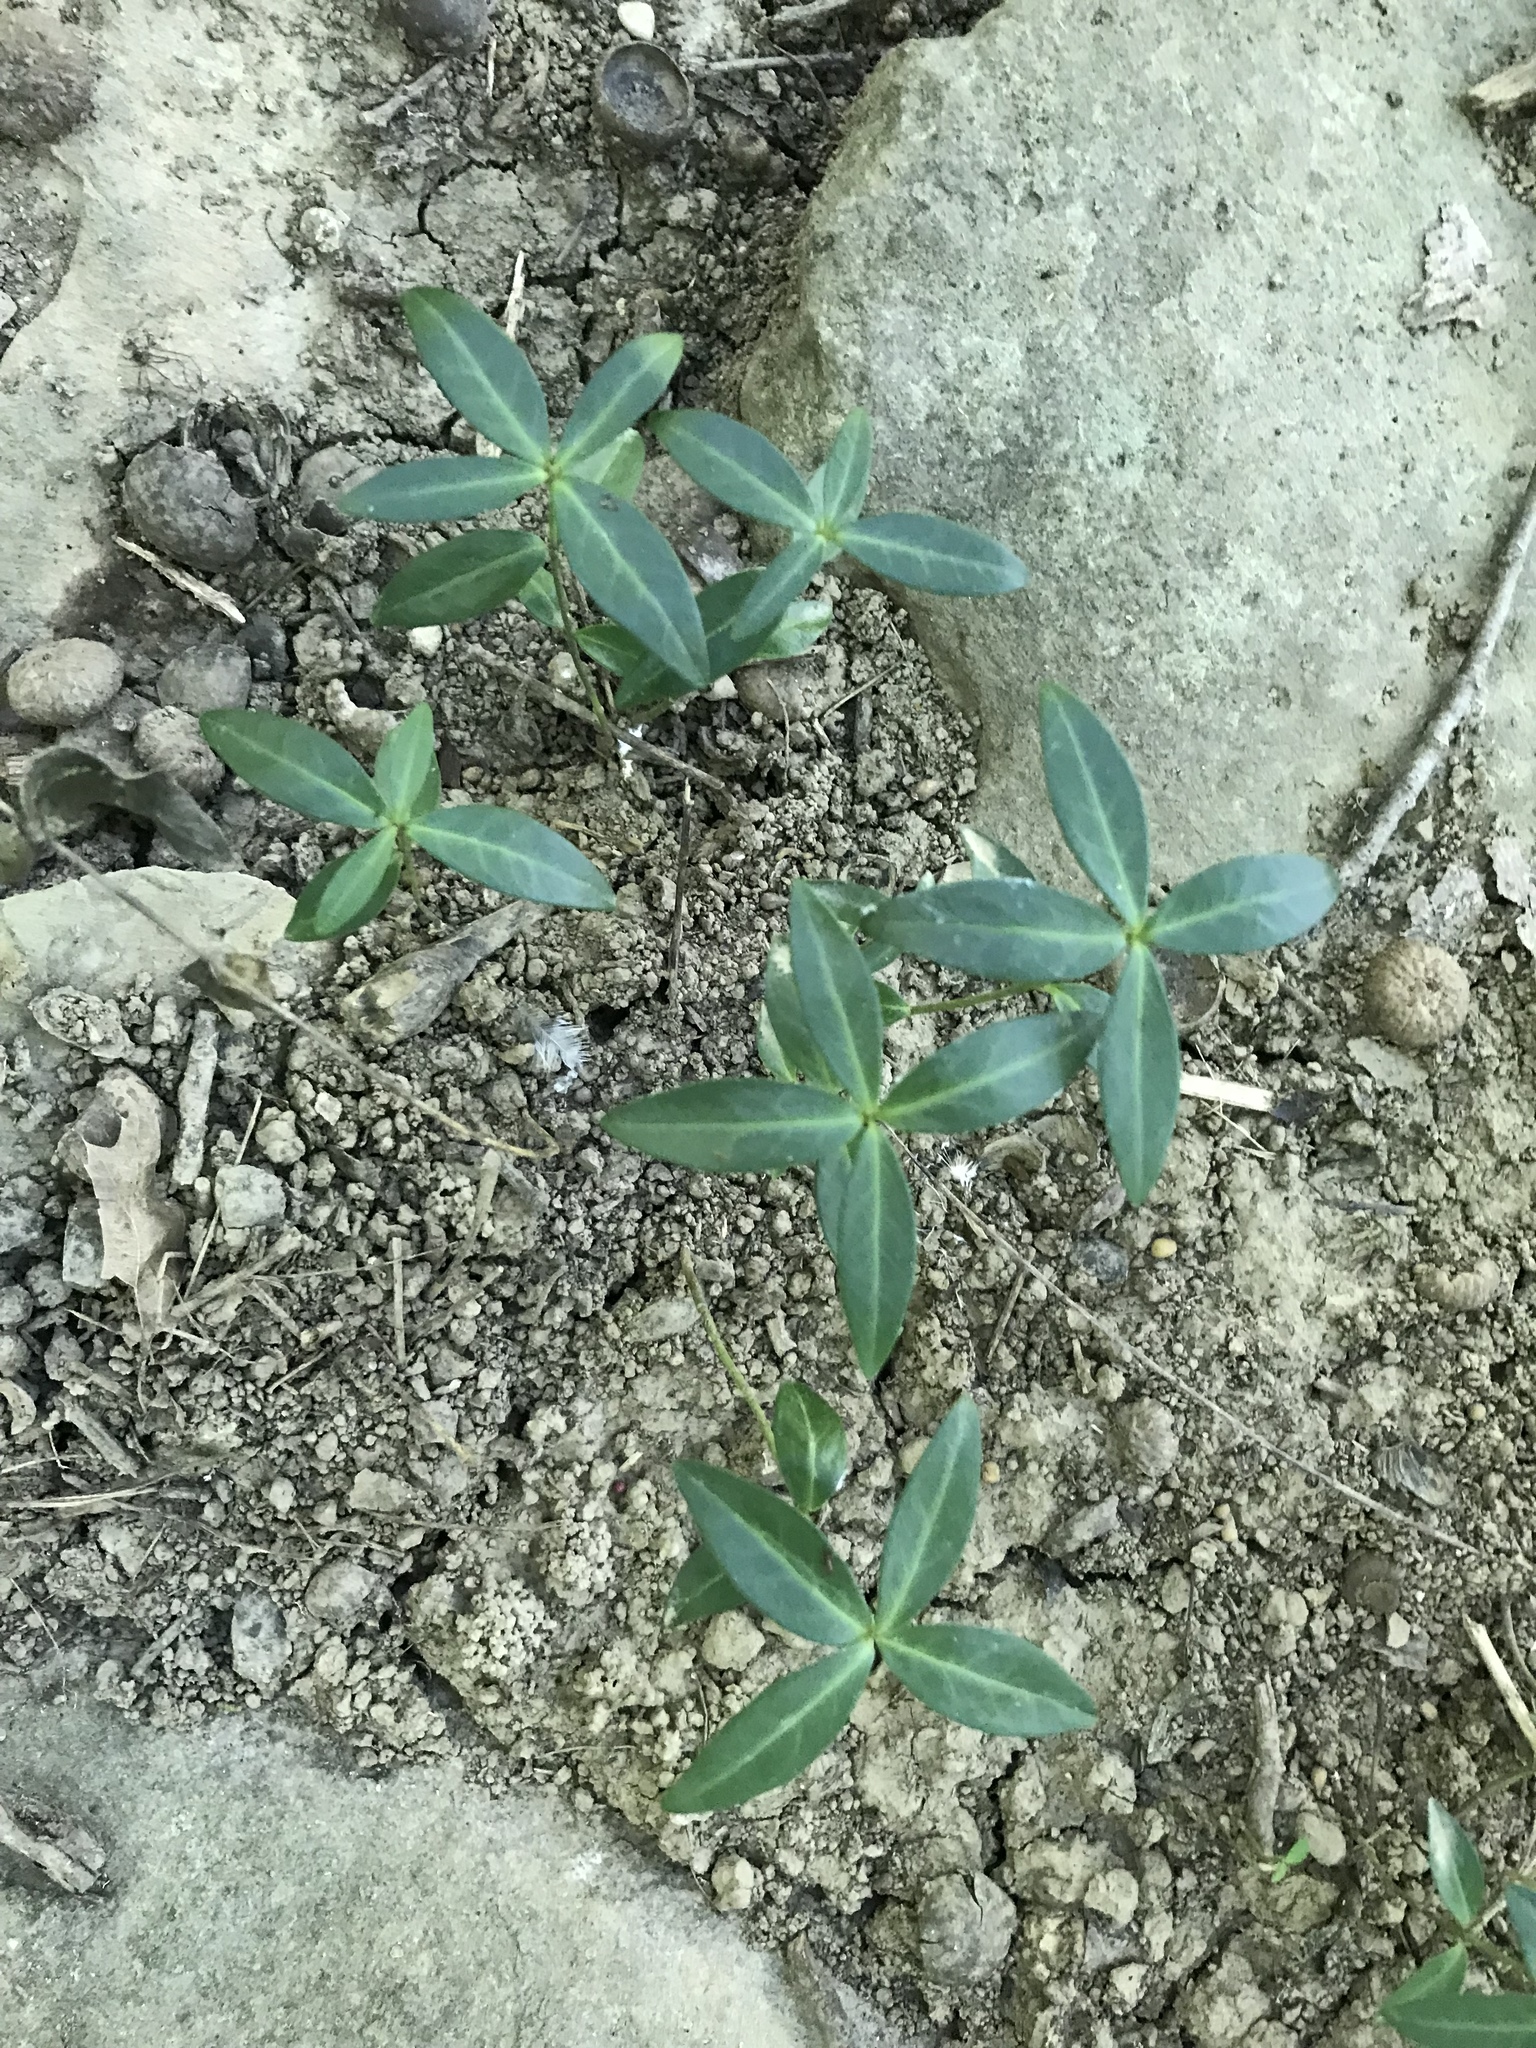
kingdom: Plantae
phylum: Tracheophyta
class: Magnoliopsida
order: Gentianales
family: Apocynaceae
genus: Vinca
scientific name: Vinca minor
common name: Lesser periwinkle
